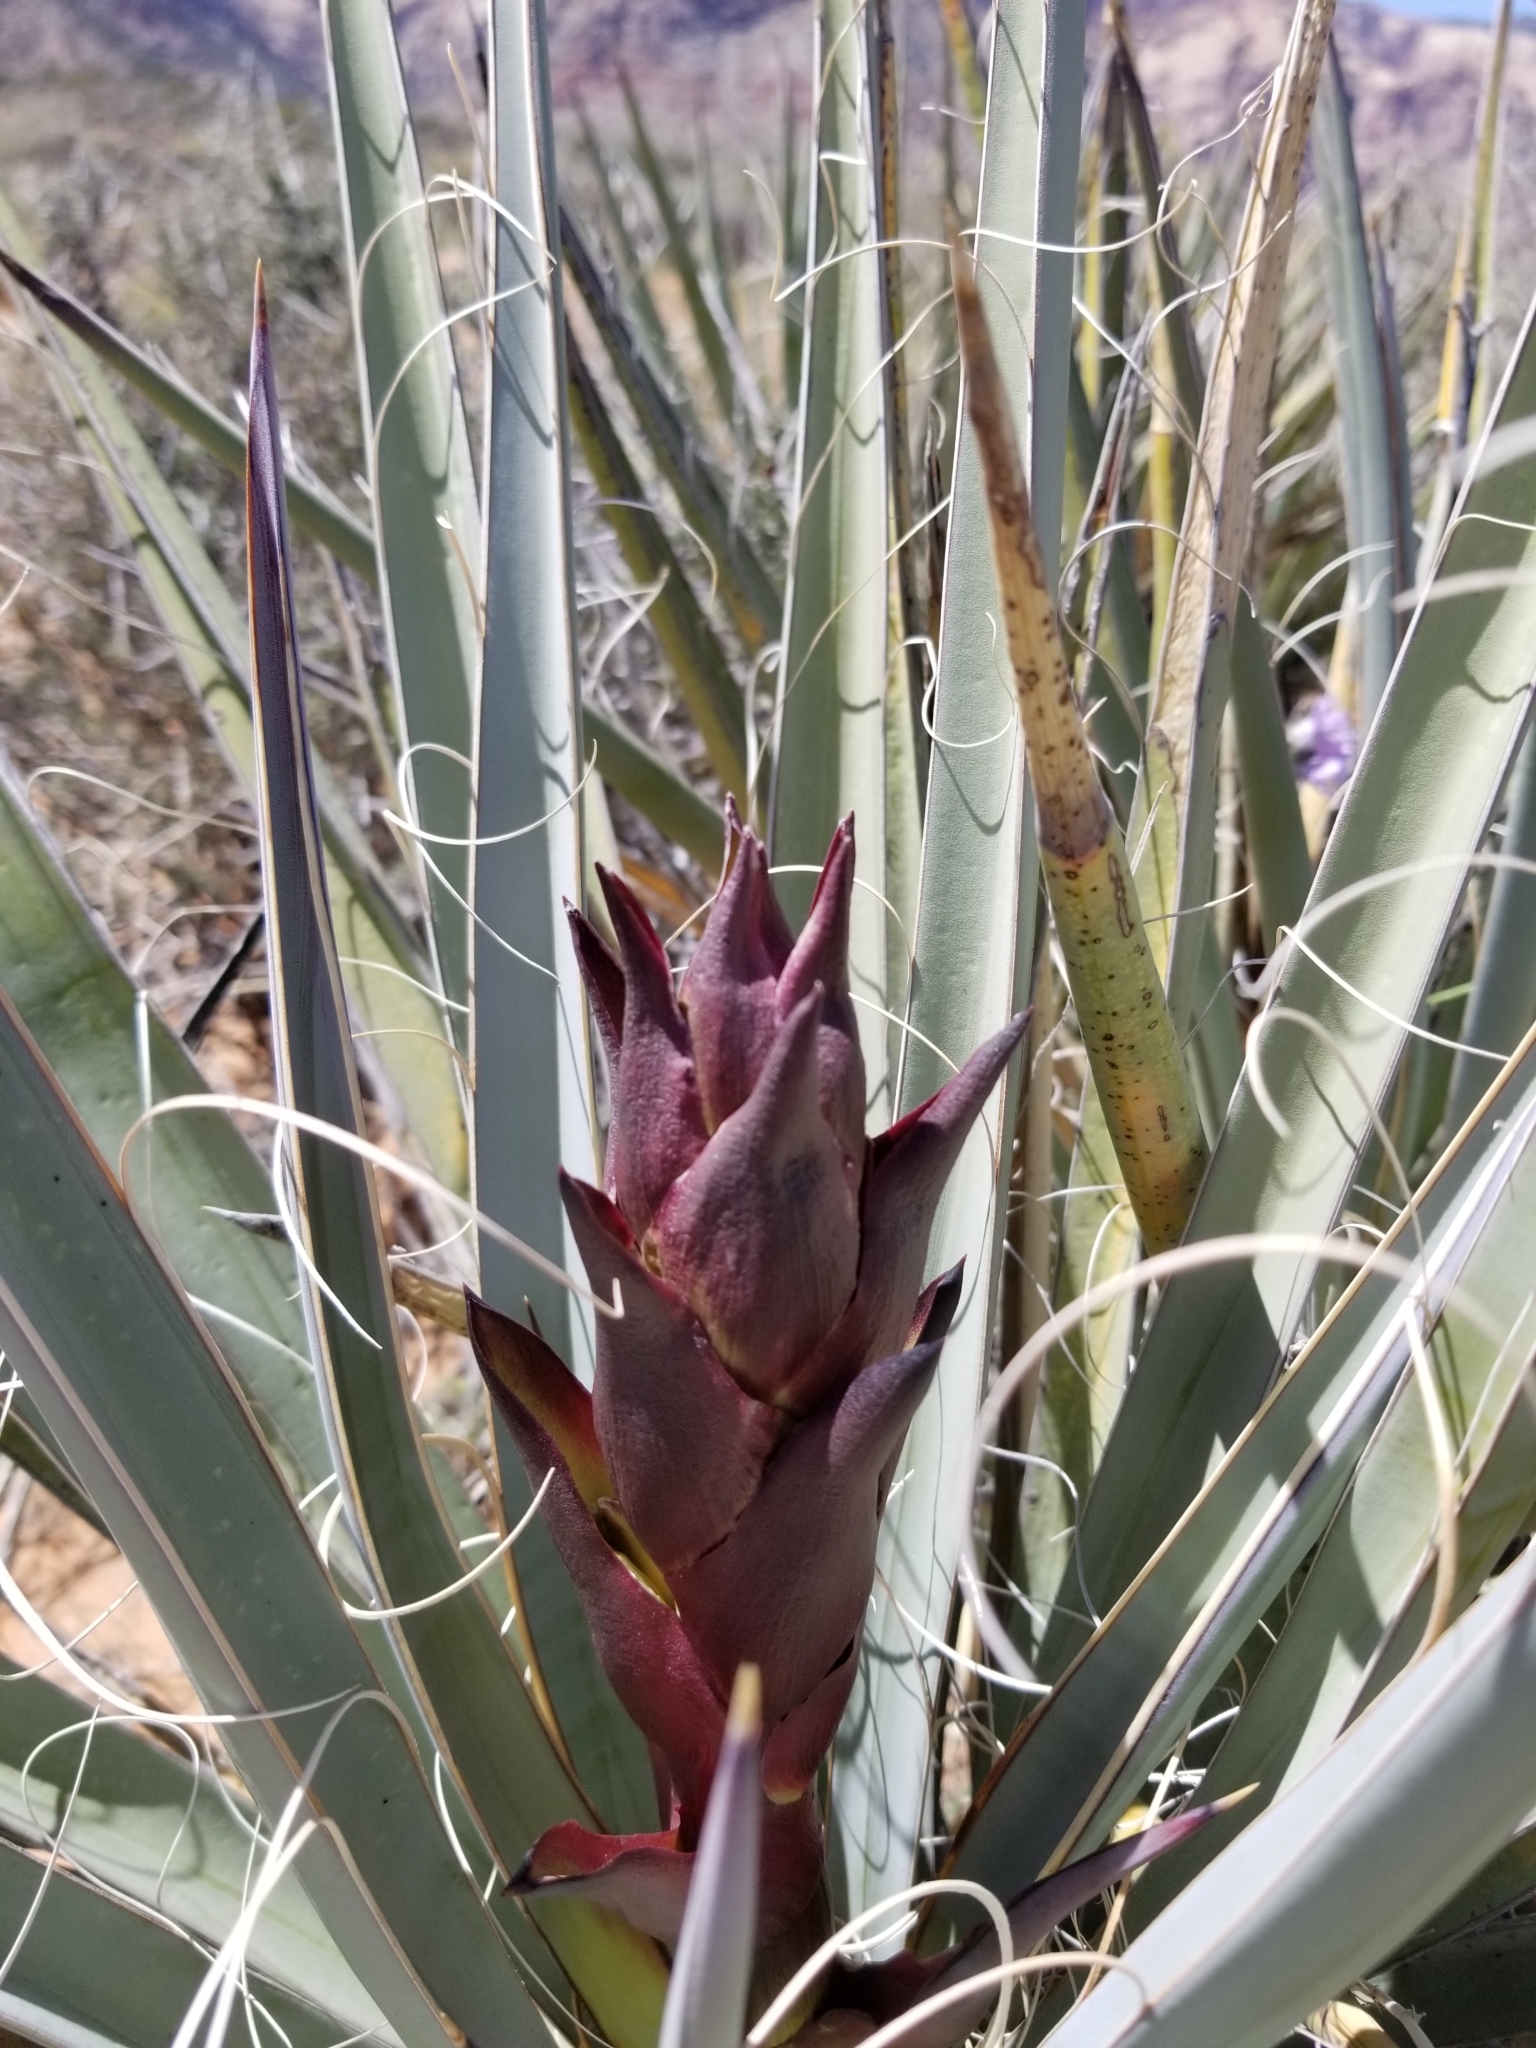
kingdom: Plantae
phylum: Tracheophyta
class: Liliopsida
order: Asparagales
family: Asparagaceae
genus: Yucca
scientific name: Yucca baccata
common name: Banana yucca
